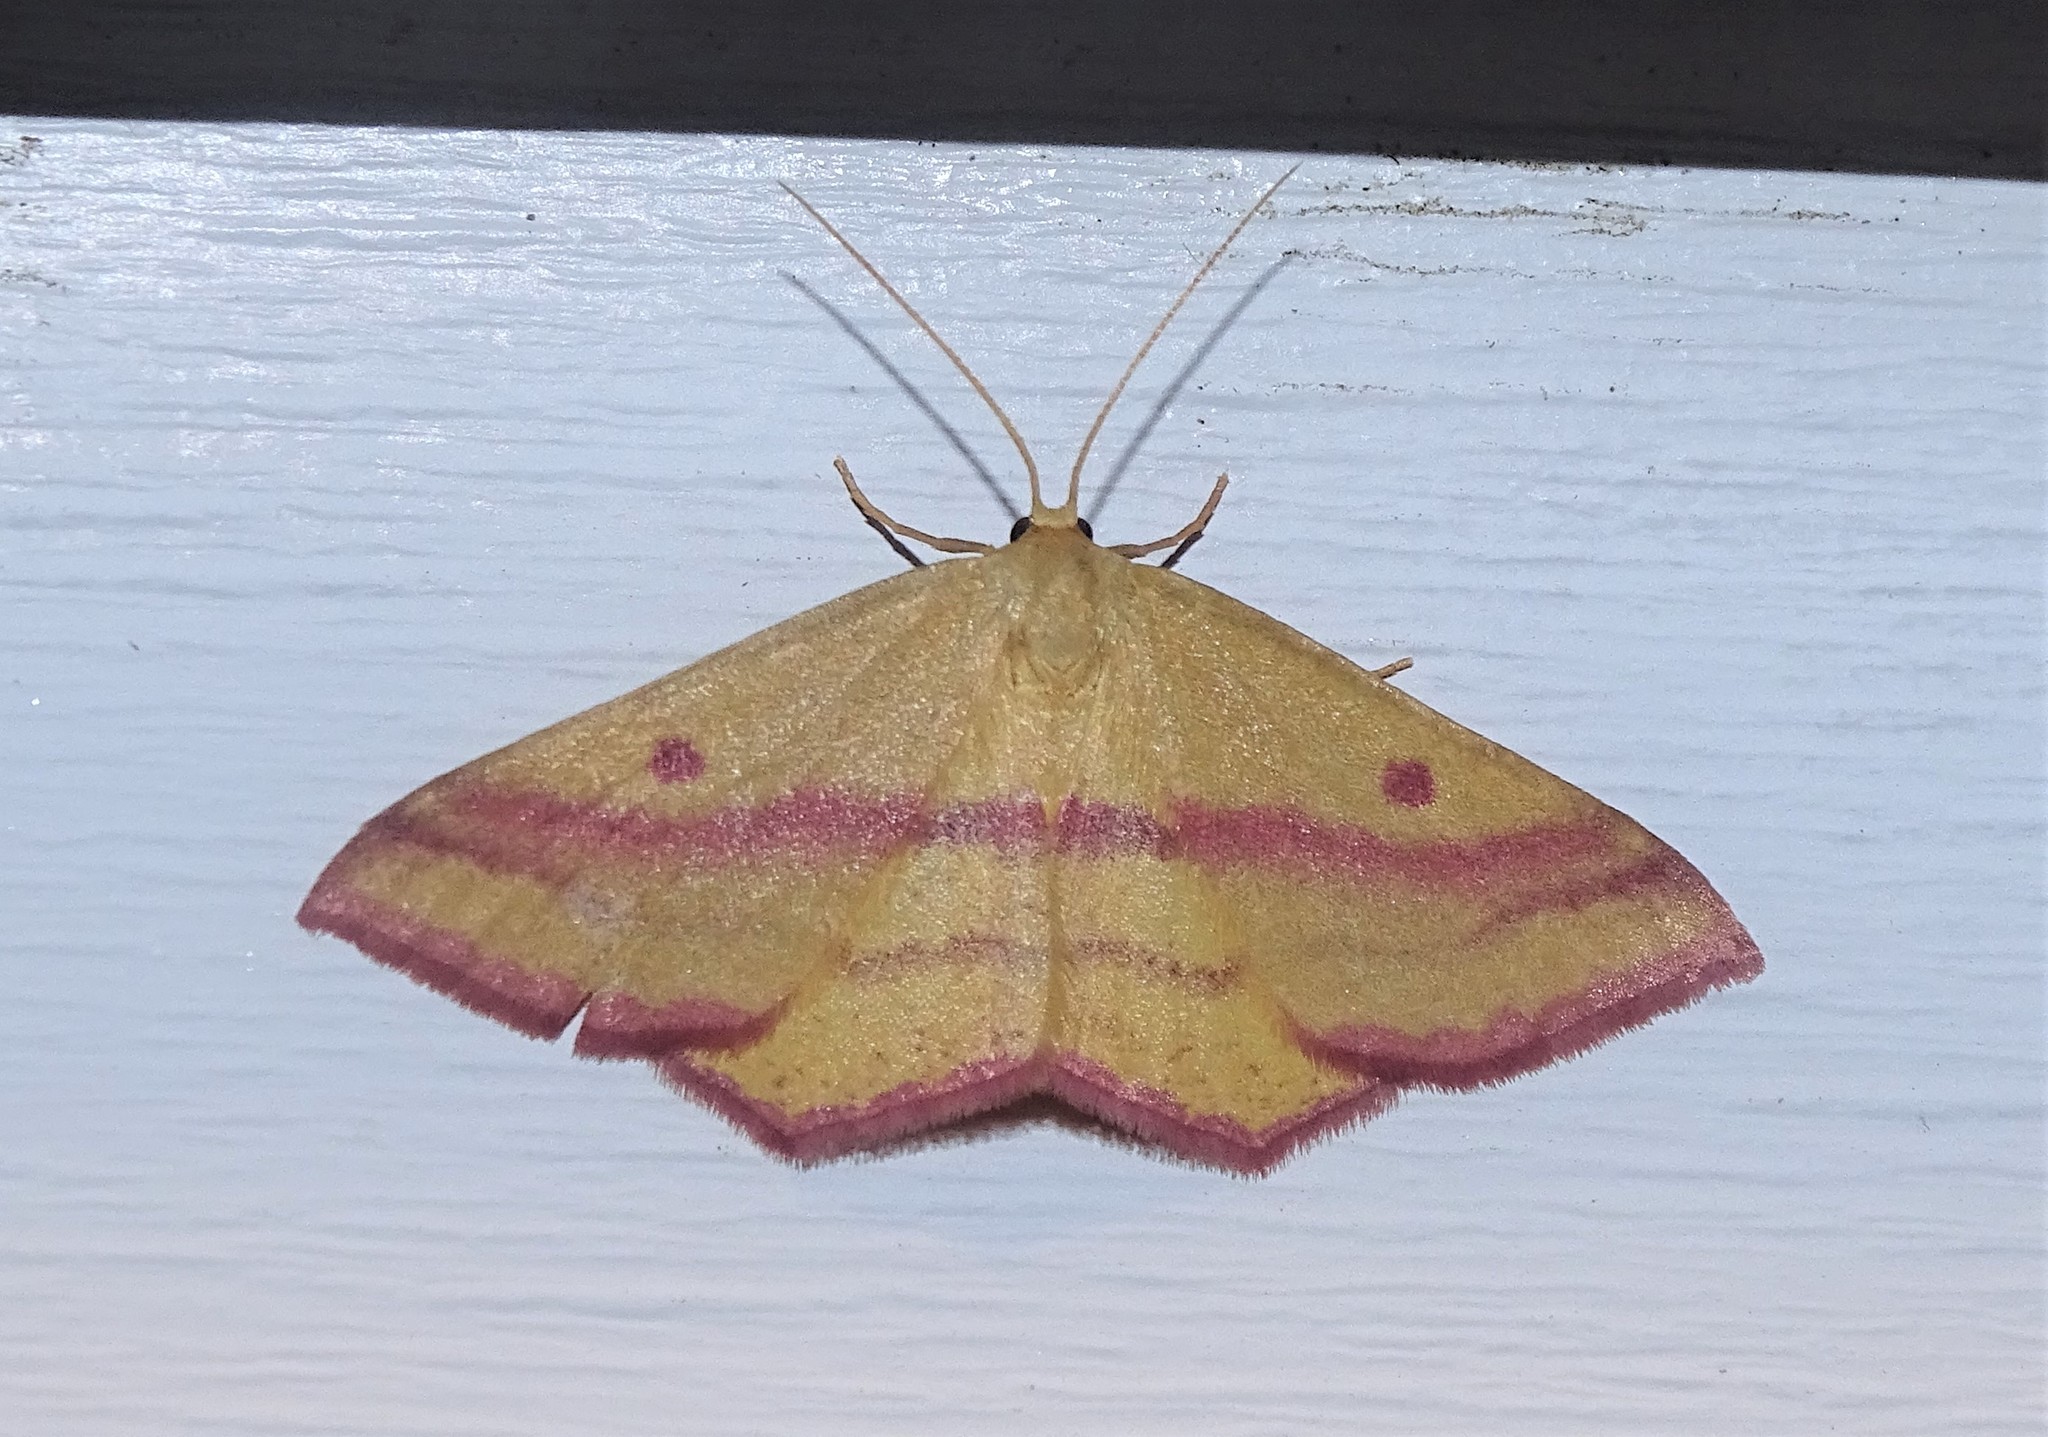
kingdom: Animalia
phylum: Arthropoda
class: Insecta
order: Lepidoptera
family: Geometridae
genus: Haematopis
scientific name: Haematopis grataria
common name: Chickweed geometer
